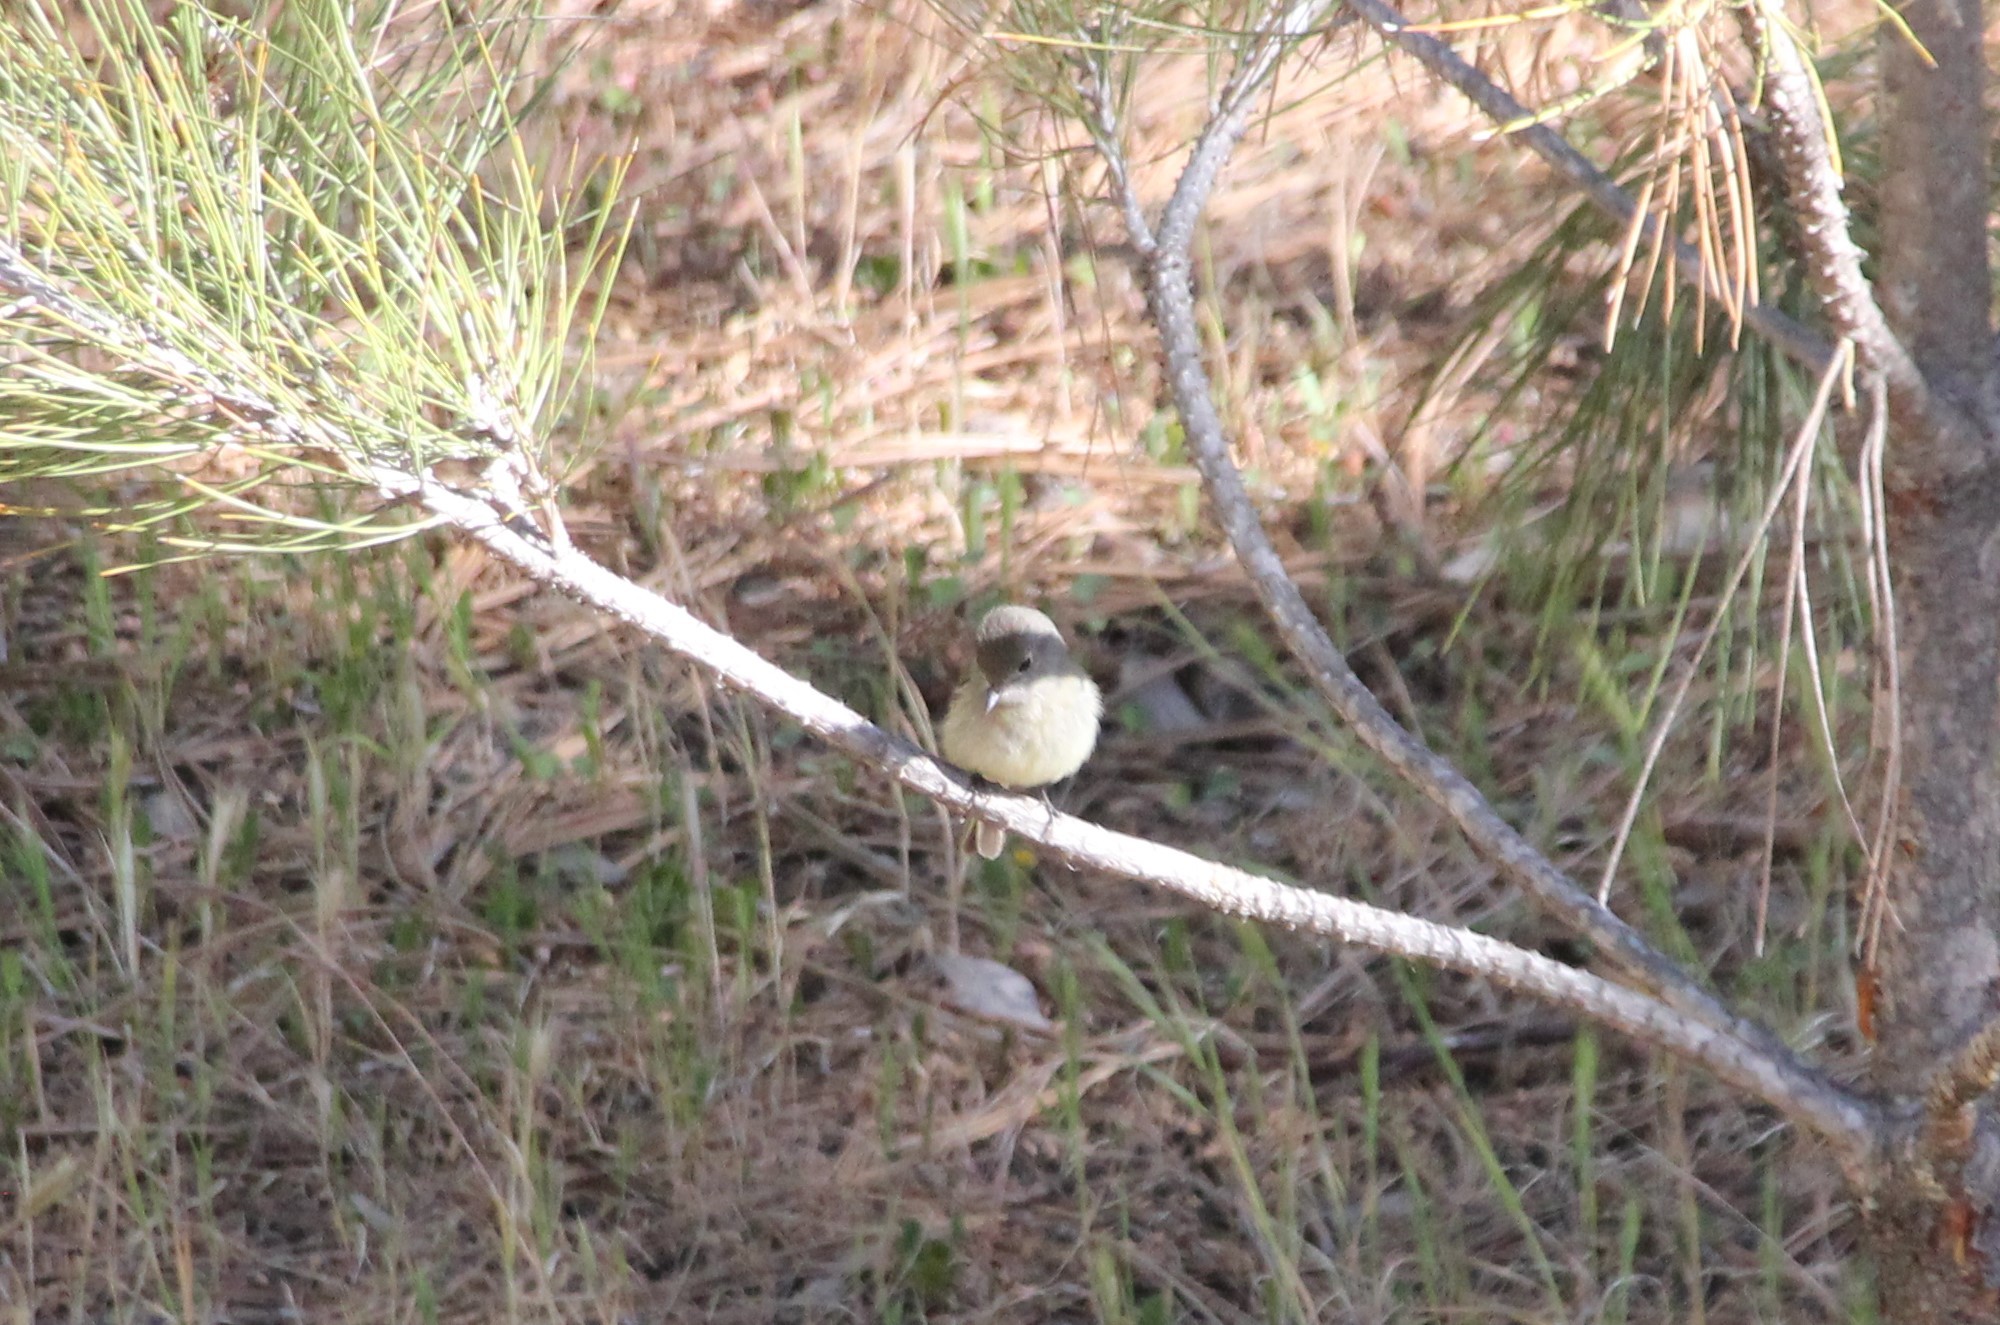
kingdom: Animalia
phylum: Chordata
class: Aves
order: Passeriformes
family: Tyrannidae
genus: Empidonax
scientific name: Empidonax hammondii
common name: Hammond's flycatcher
